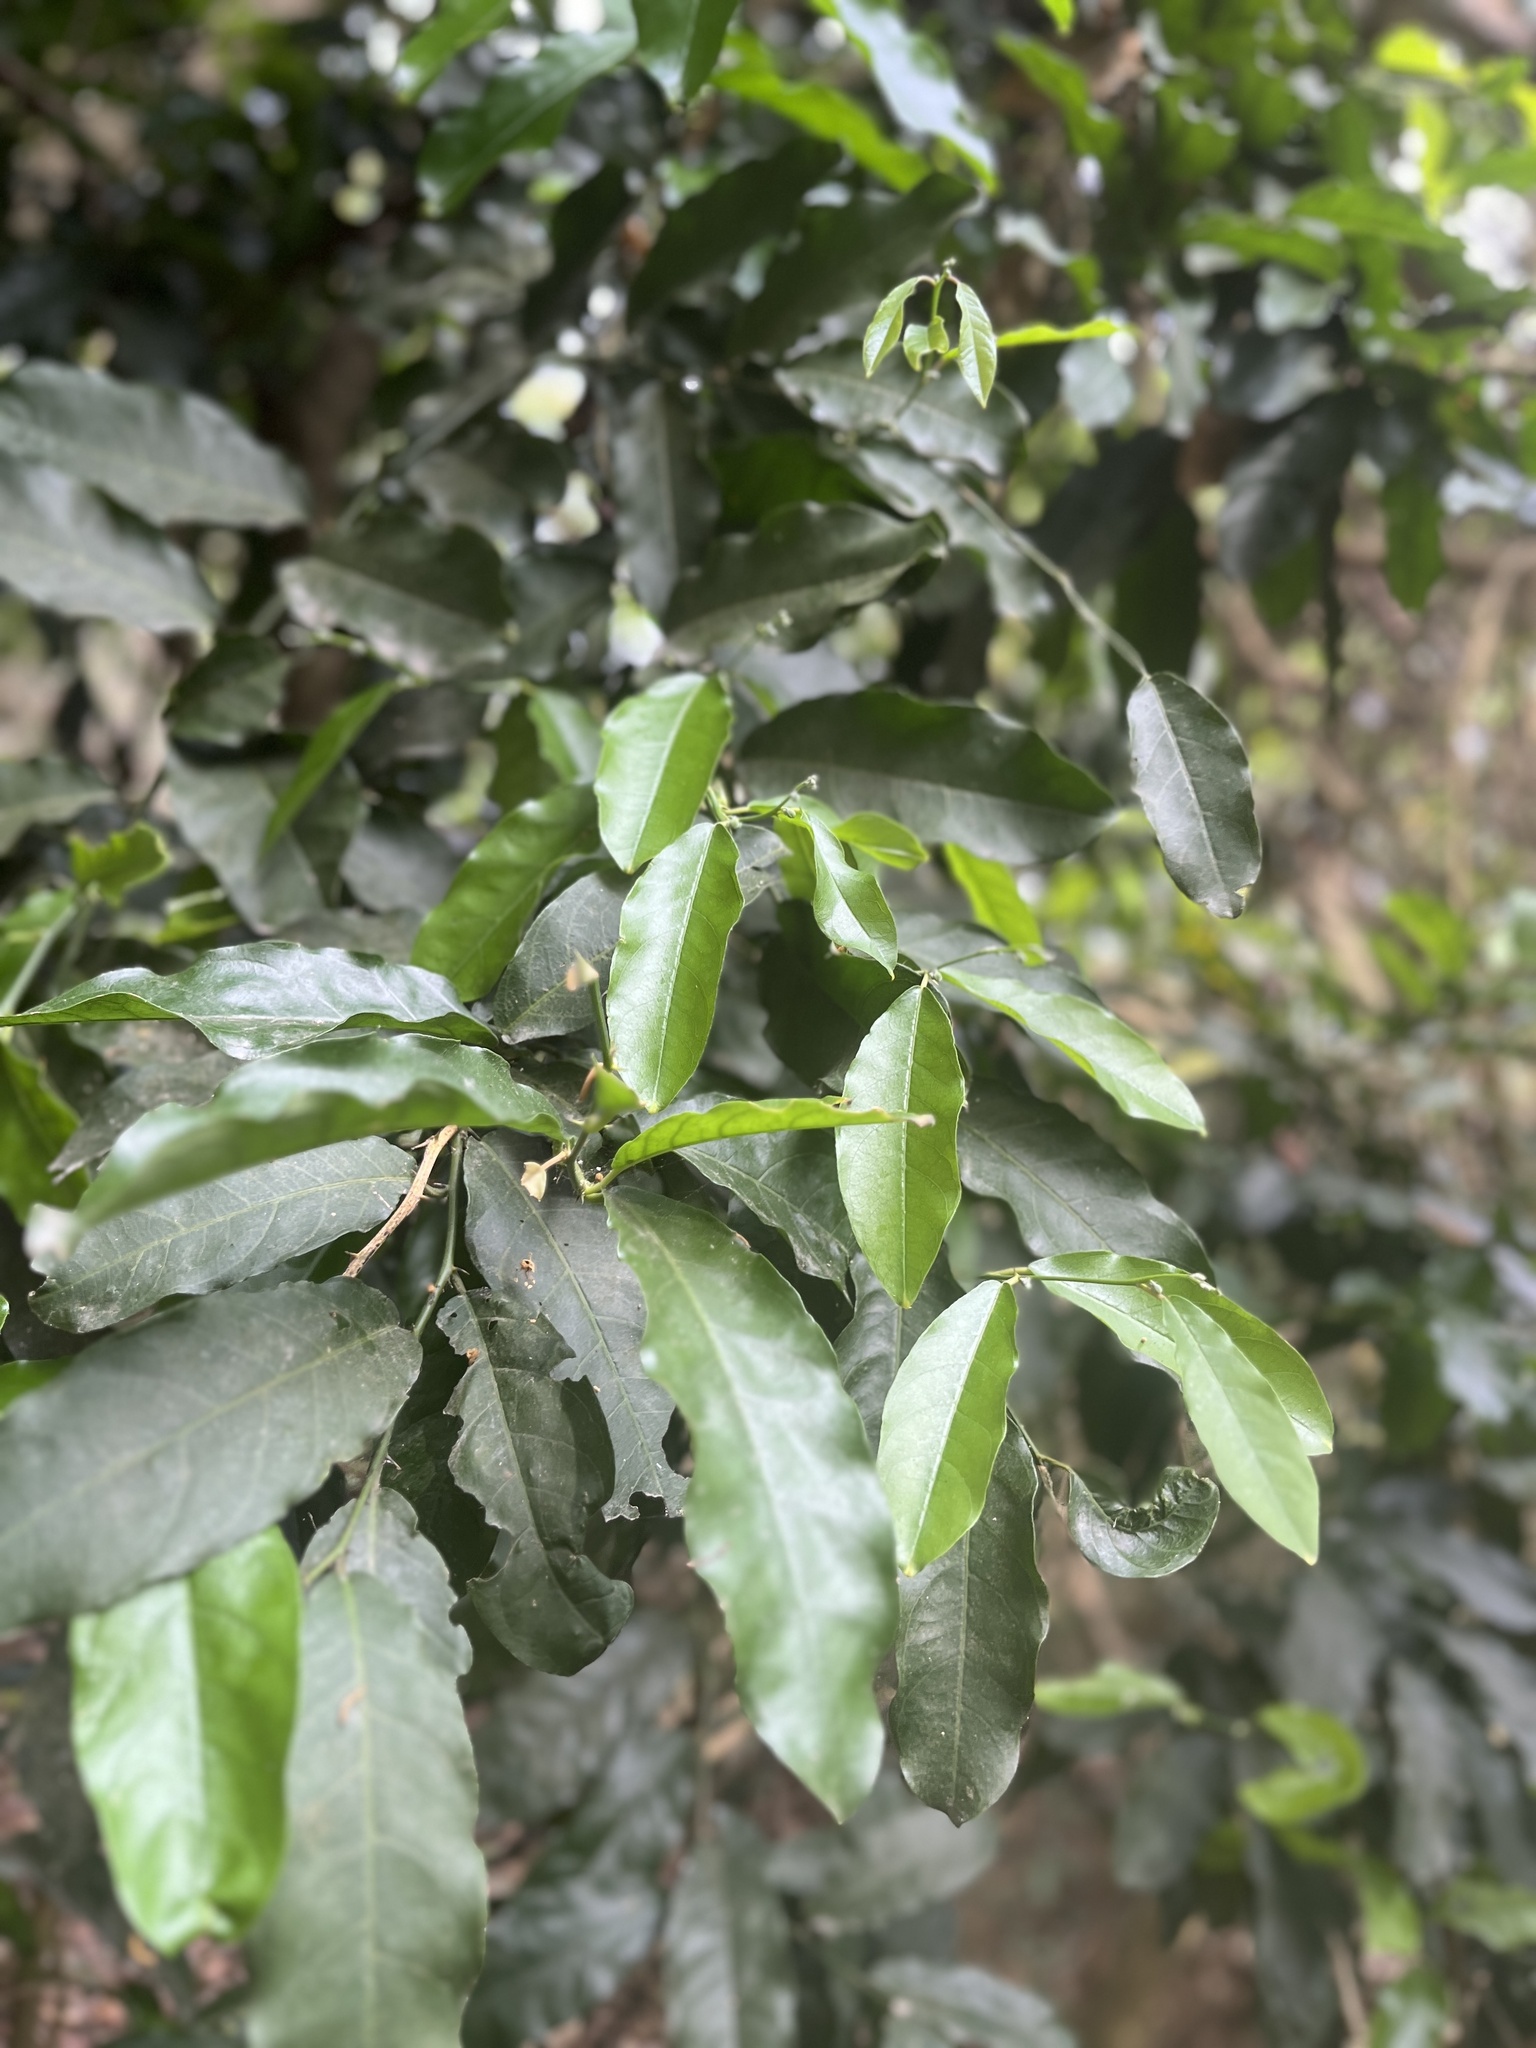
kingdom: Plantae
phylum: Tracheophyta
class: Magnoliopsida
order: Brassicales
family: Capparaceae
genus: Capparis
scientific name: Capparis micracantha
